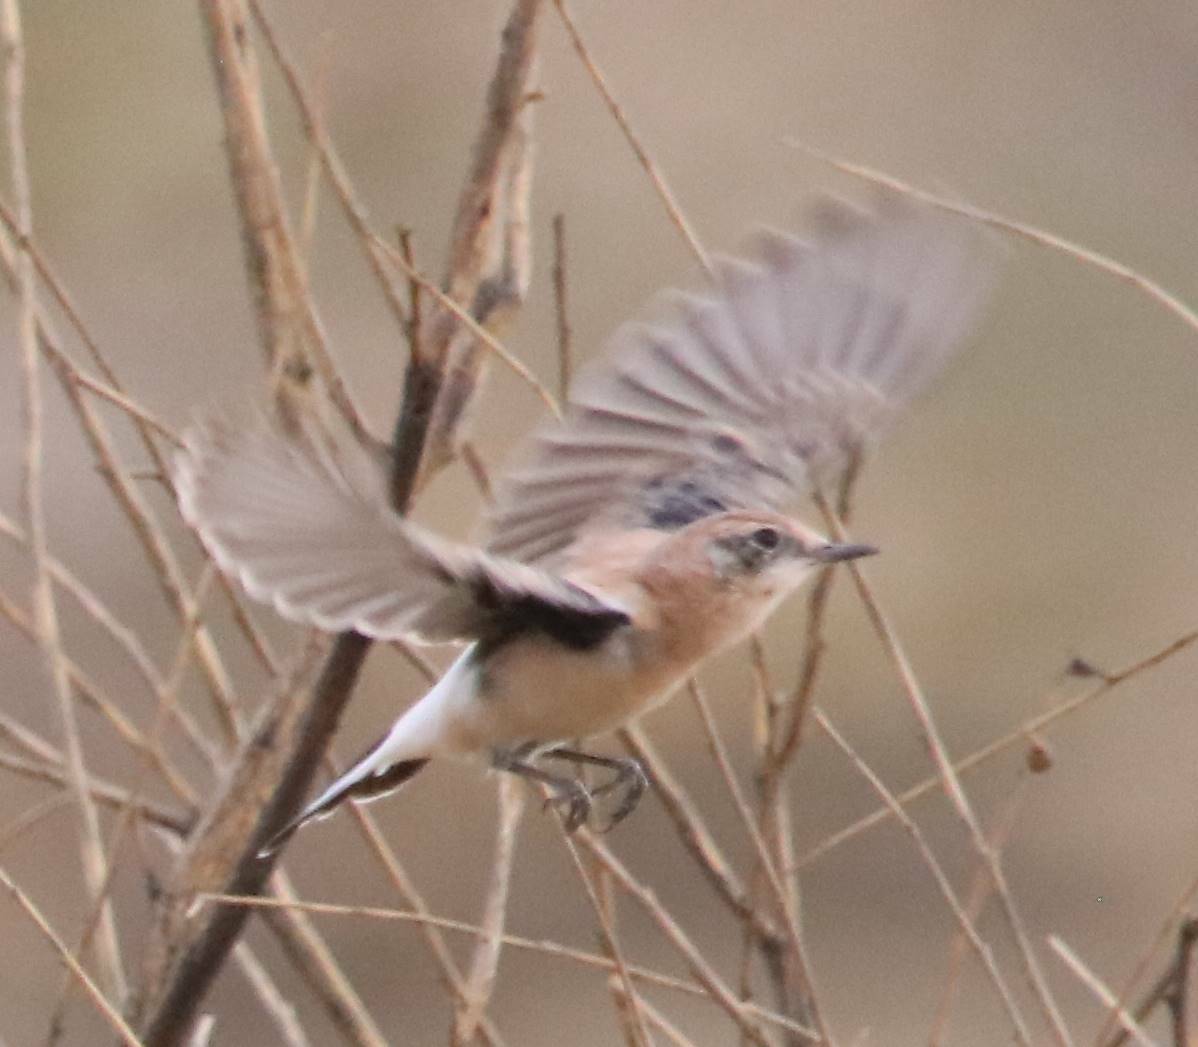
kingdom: Animalia
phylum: Chordata
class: Aves
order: Passeriformes
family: Muscicapidae
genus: Oenanthe
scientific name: Oenanthe hispanica
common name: Black-eared wheatear
